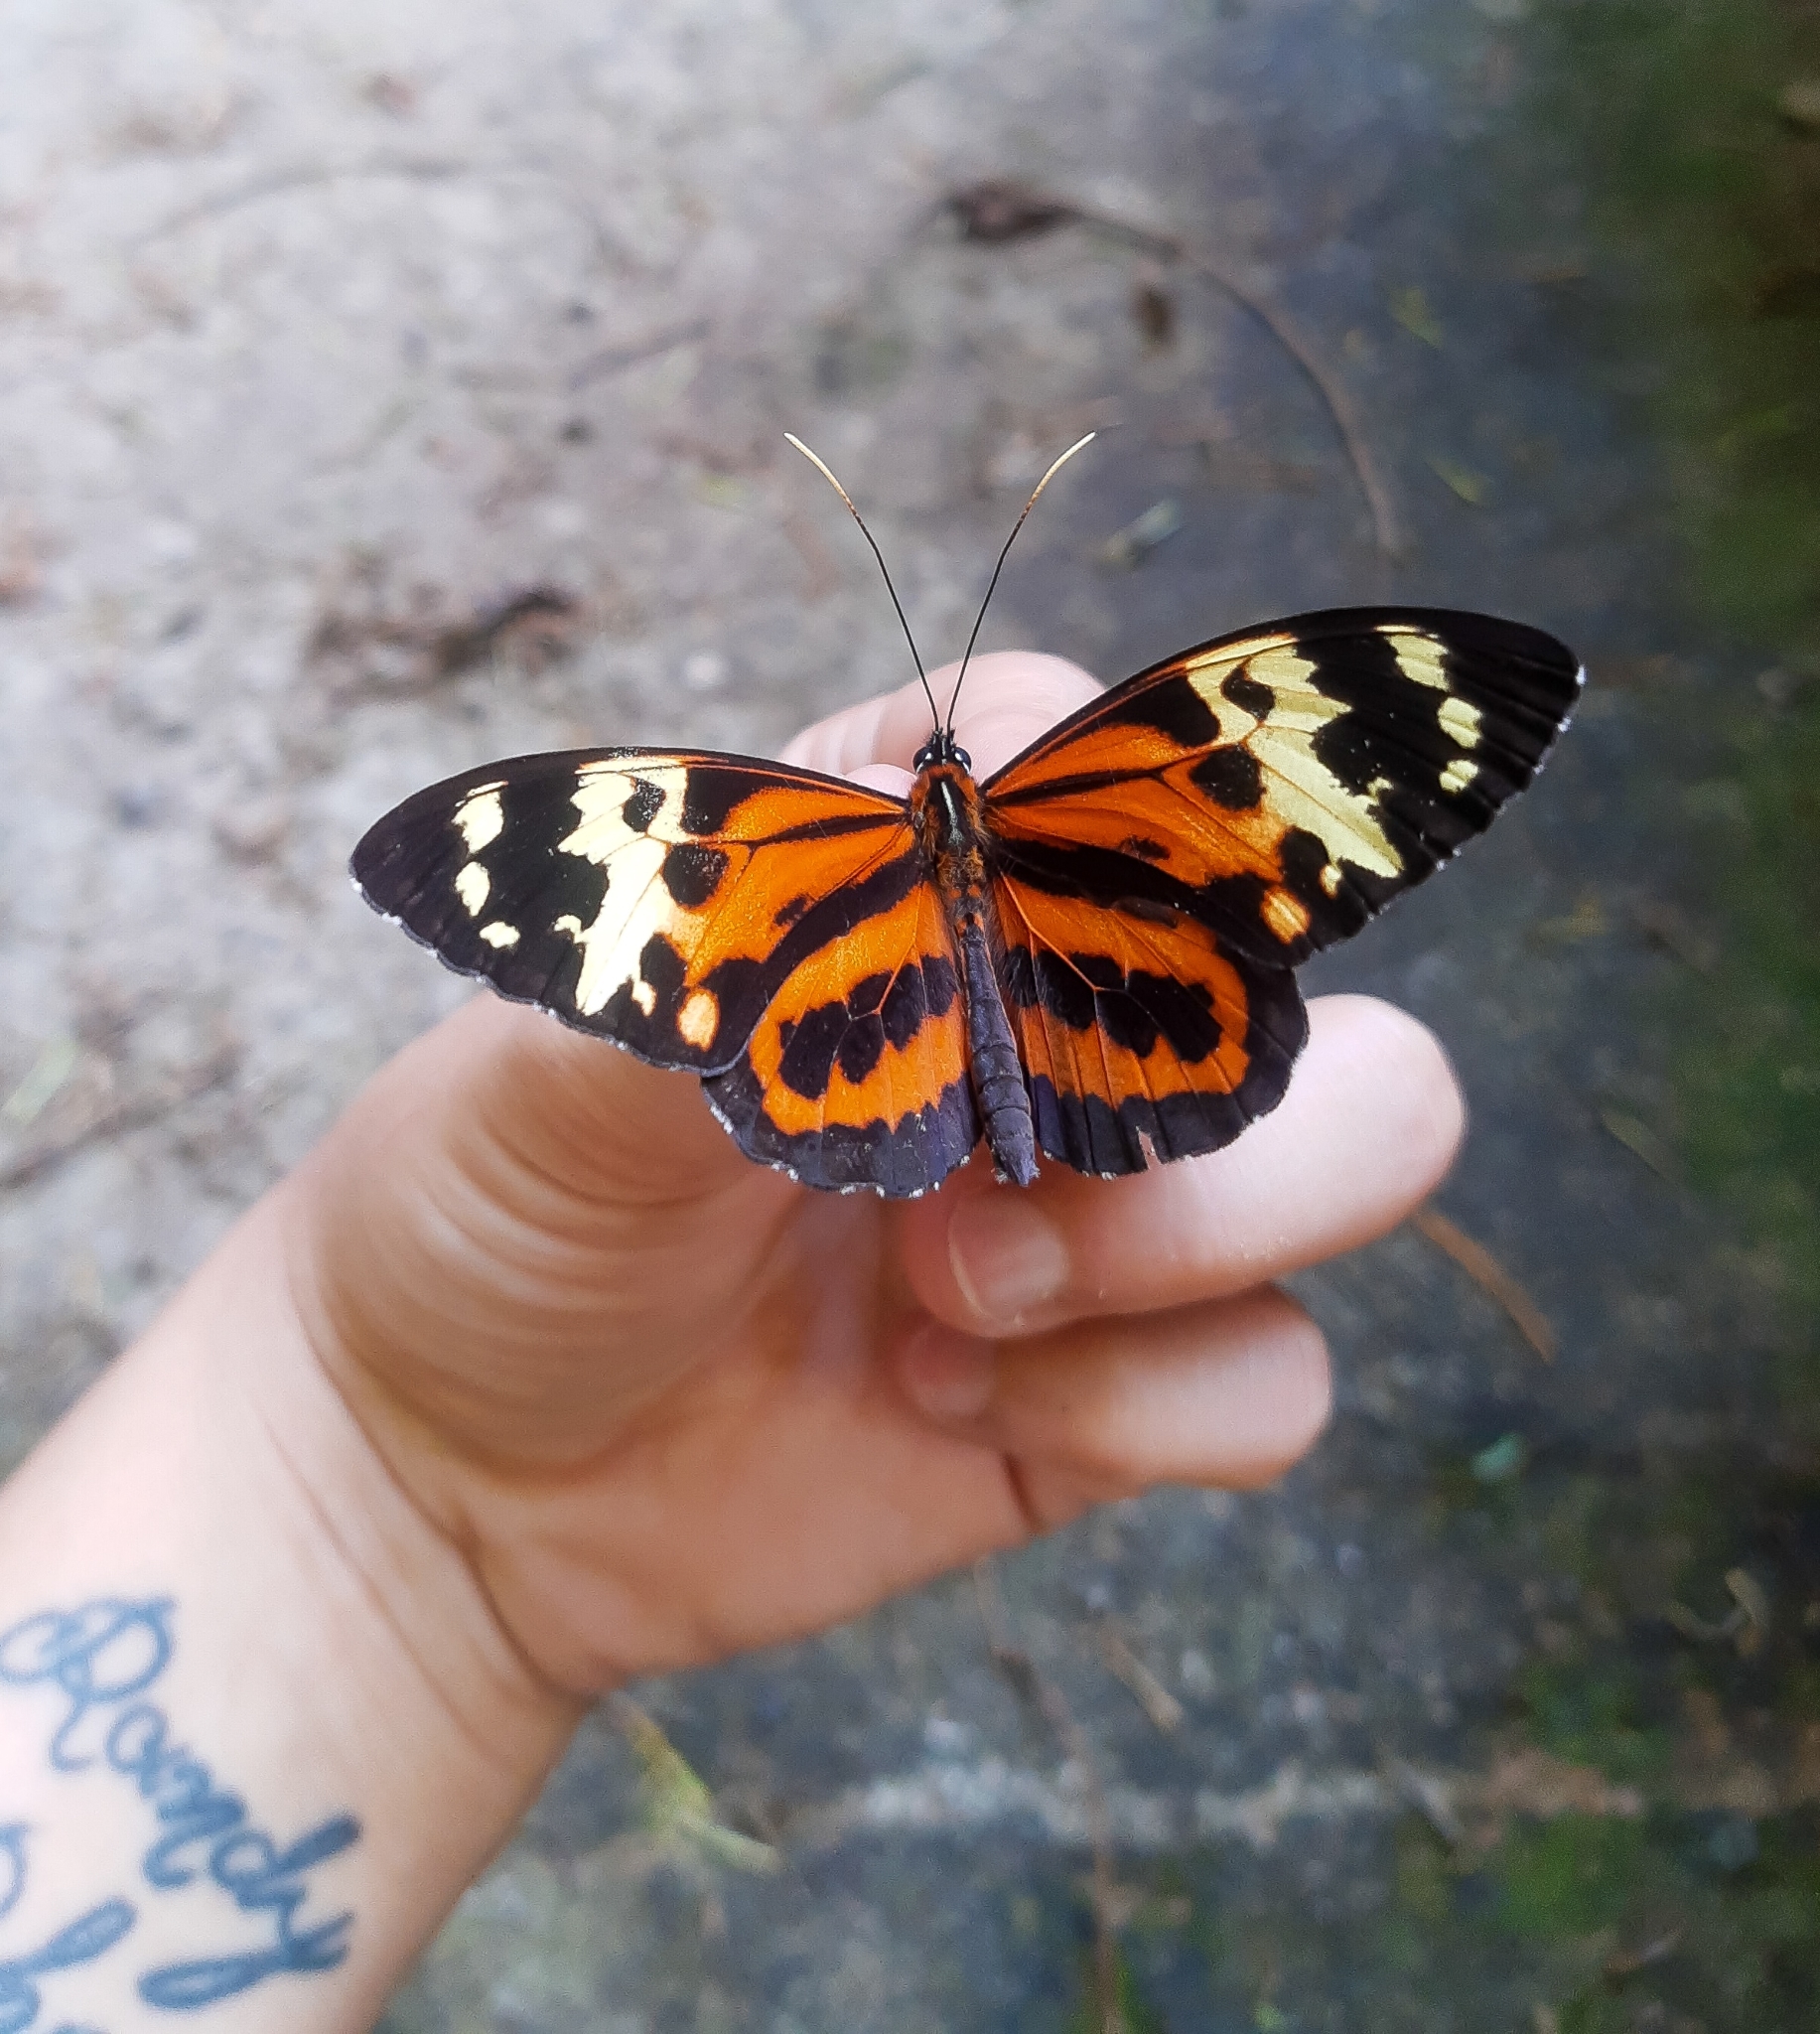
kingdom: Animalia
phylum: Arthropoda
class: Insecta
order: Lepidoptera
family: Nymphalidae
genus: Tithorea
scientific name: Tithorea harmonia
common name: Harmonia tigerwing
